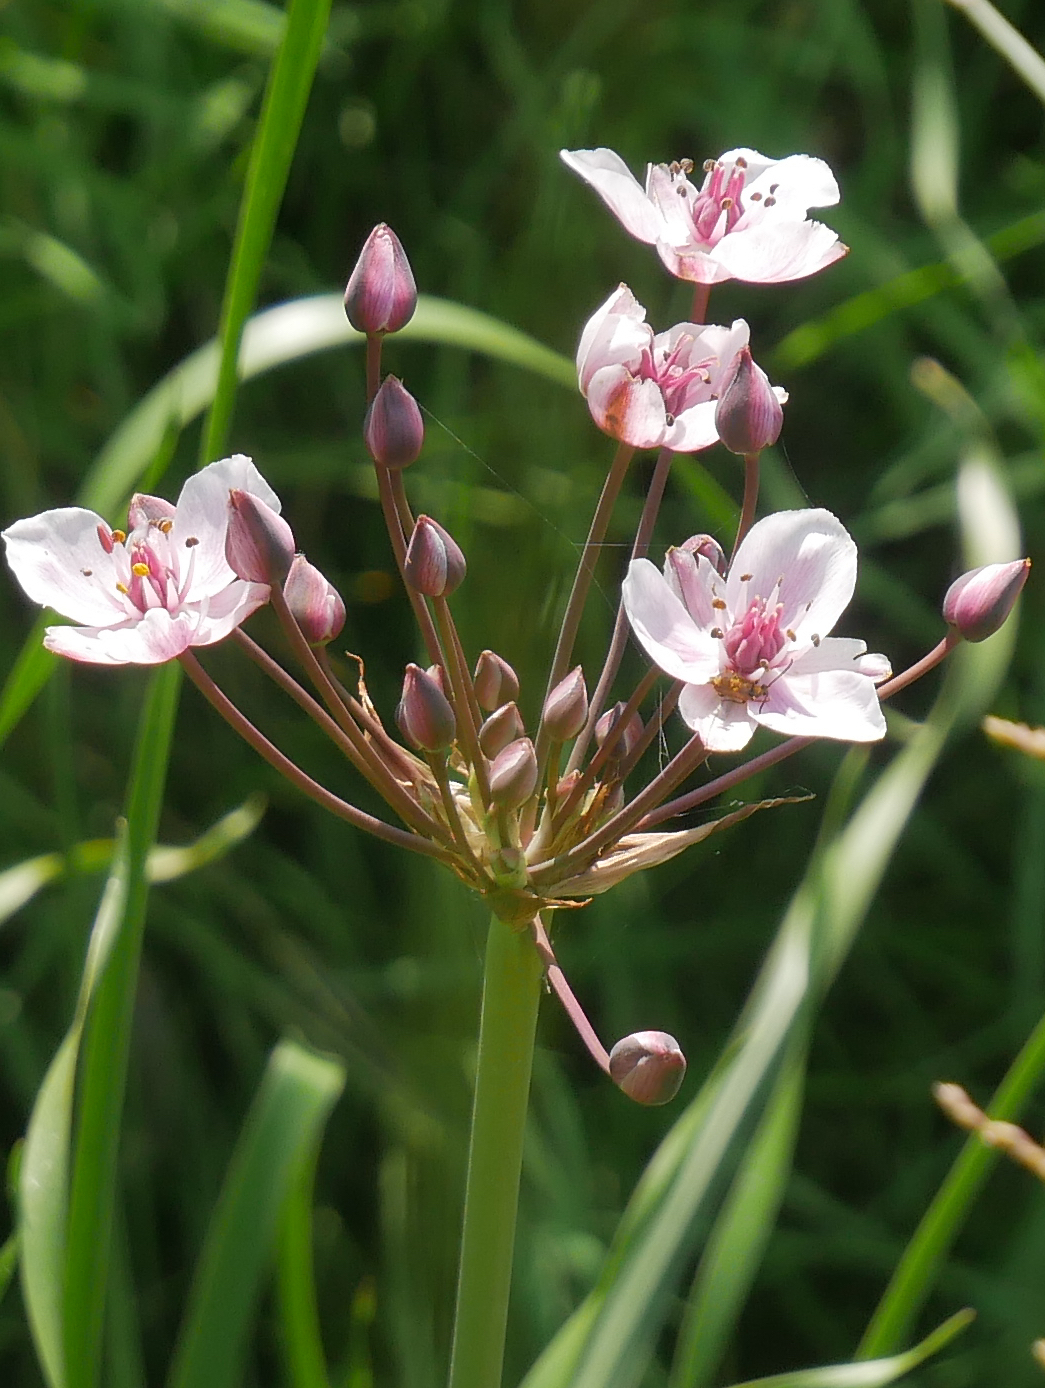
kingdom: Plantae
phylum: Tracheophyta
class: Liliopsida
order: Alismatales
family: Butomaceae
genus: Butomus
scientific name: Butomus umbellatus
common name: Flowering-rush
